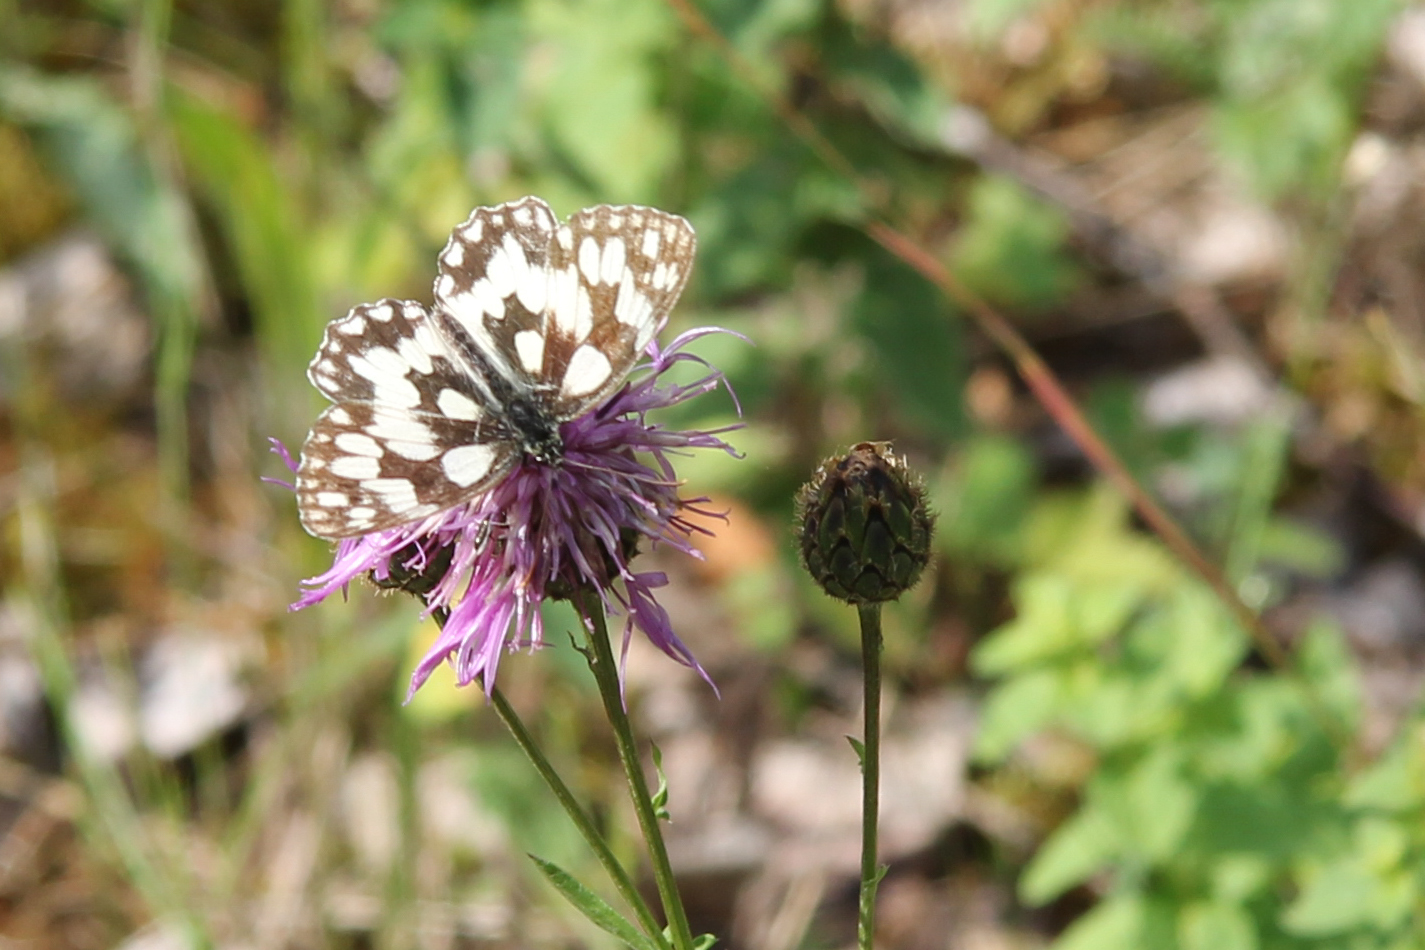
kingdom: Animalia
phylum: Arthropoda
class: Insecta
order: Lepidoptera
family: Nymphalidae
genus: Melanargia
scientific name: Melanargia galathea
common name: Marbled white
